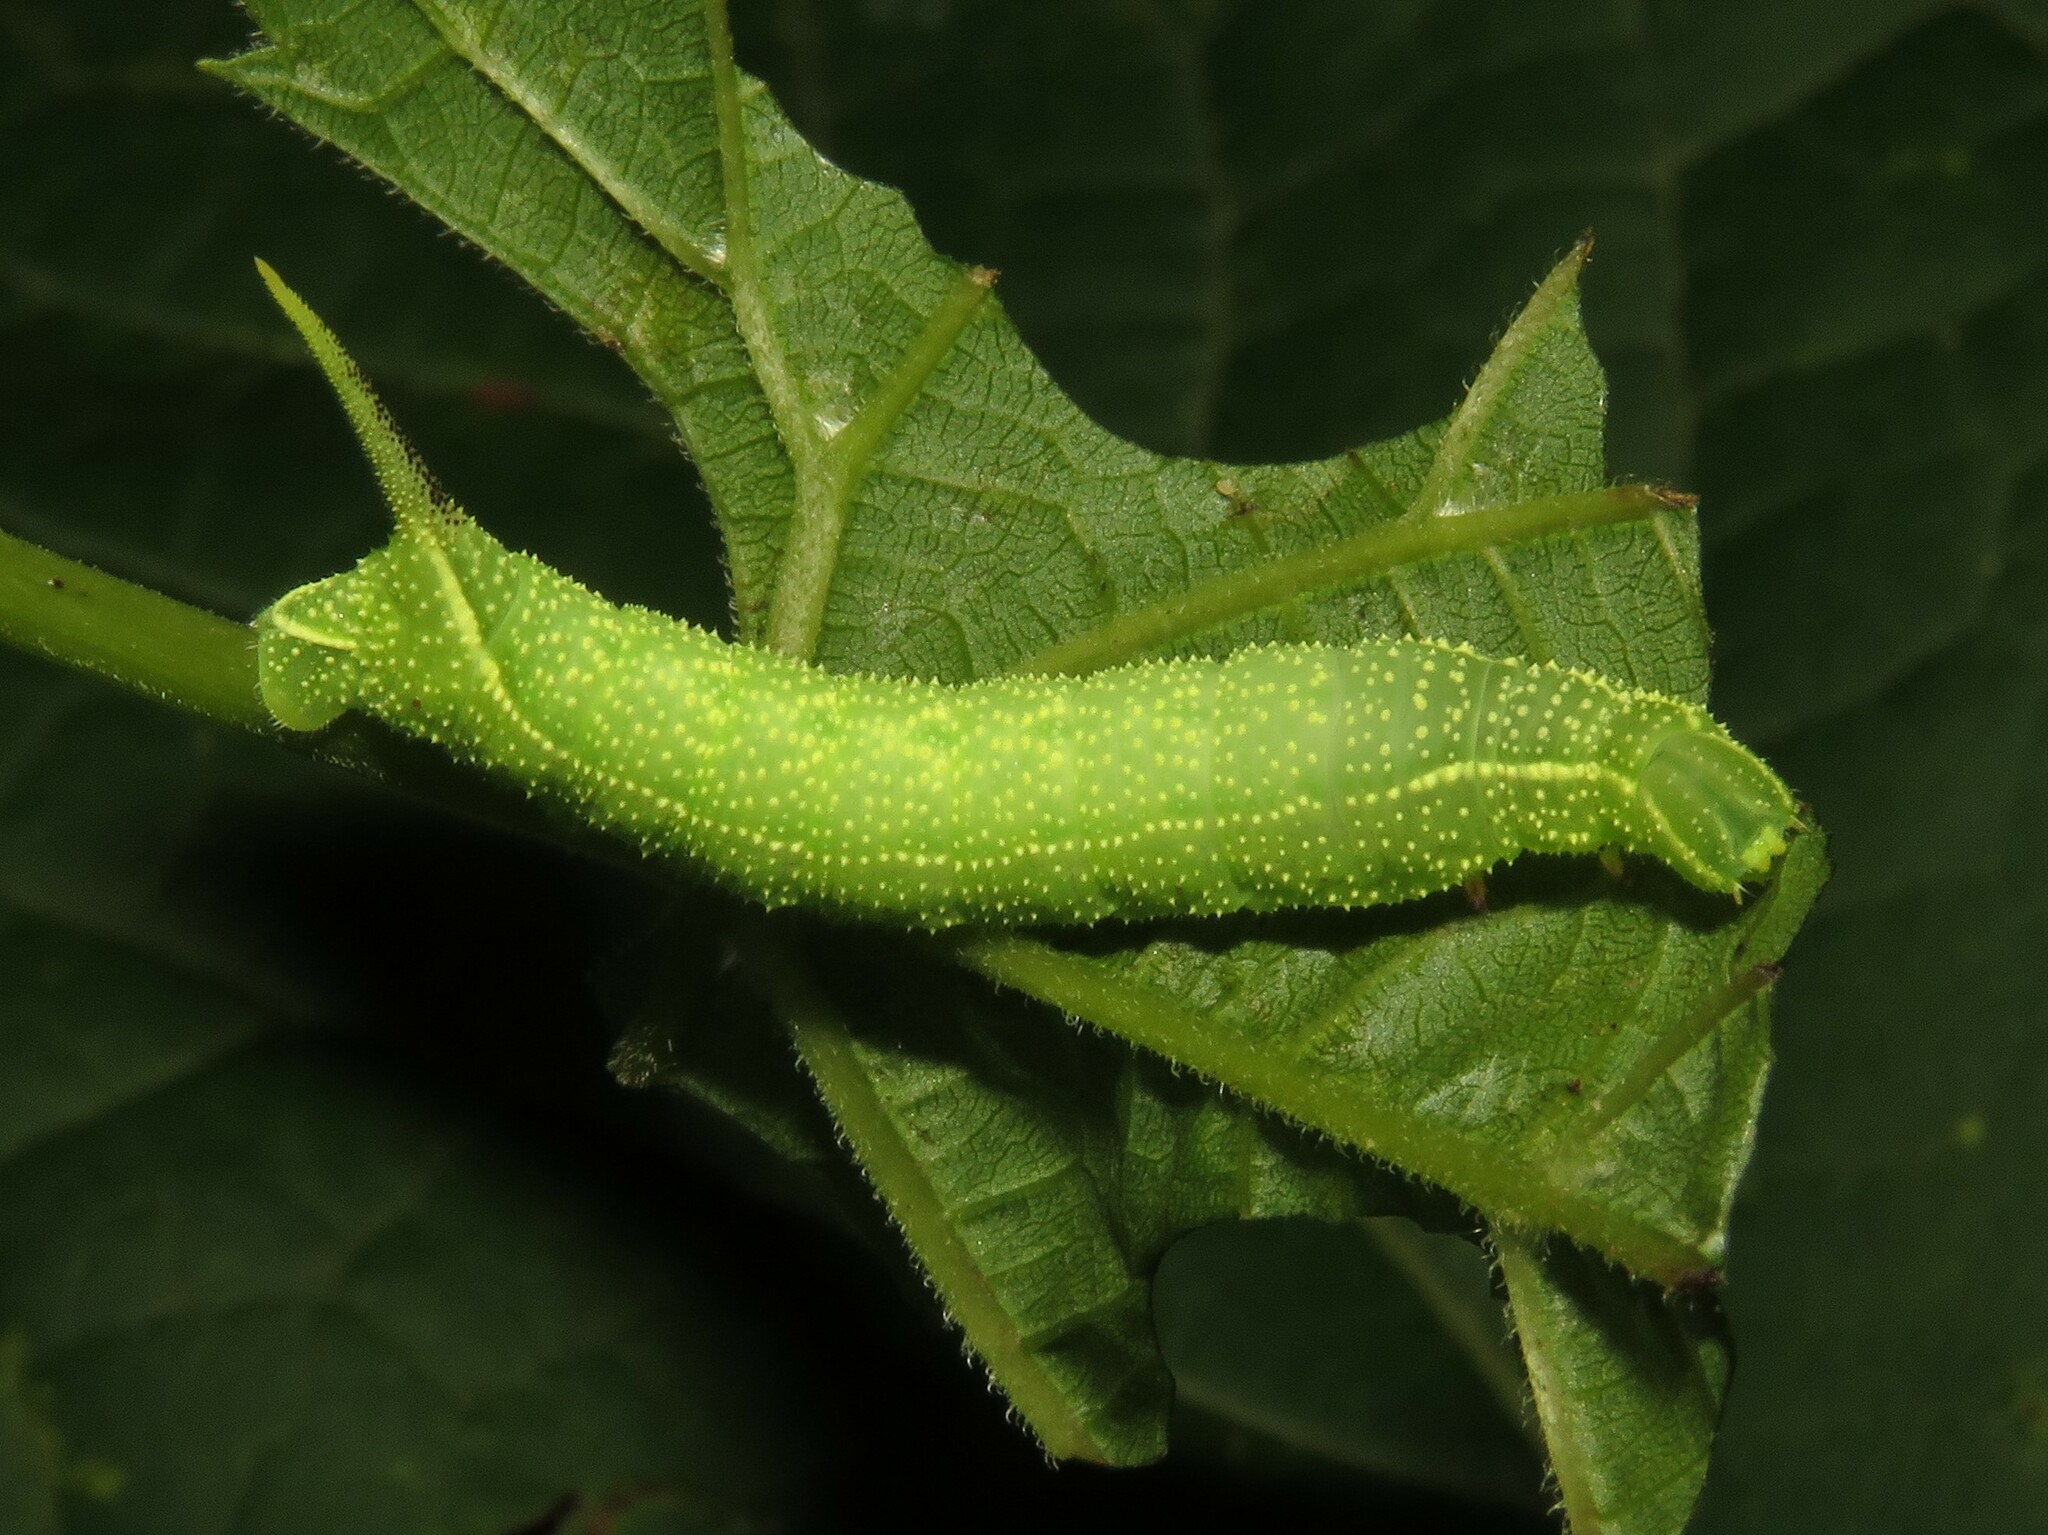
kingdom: Animalia
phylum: Arthropoda
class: Insecta
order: Lepidoptera
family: Sphingidae
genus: Darapsa
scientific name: Darapsa myron
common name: Hog sphinx
